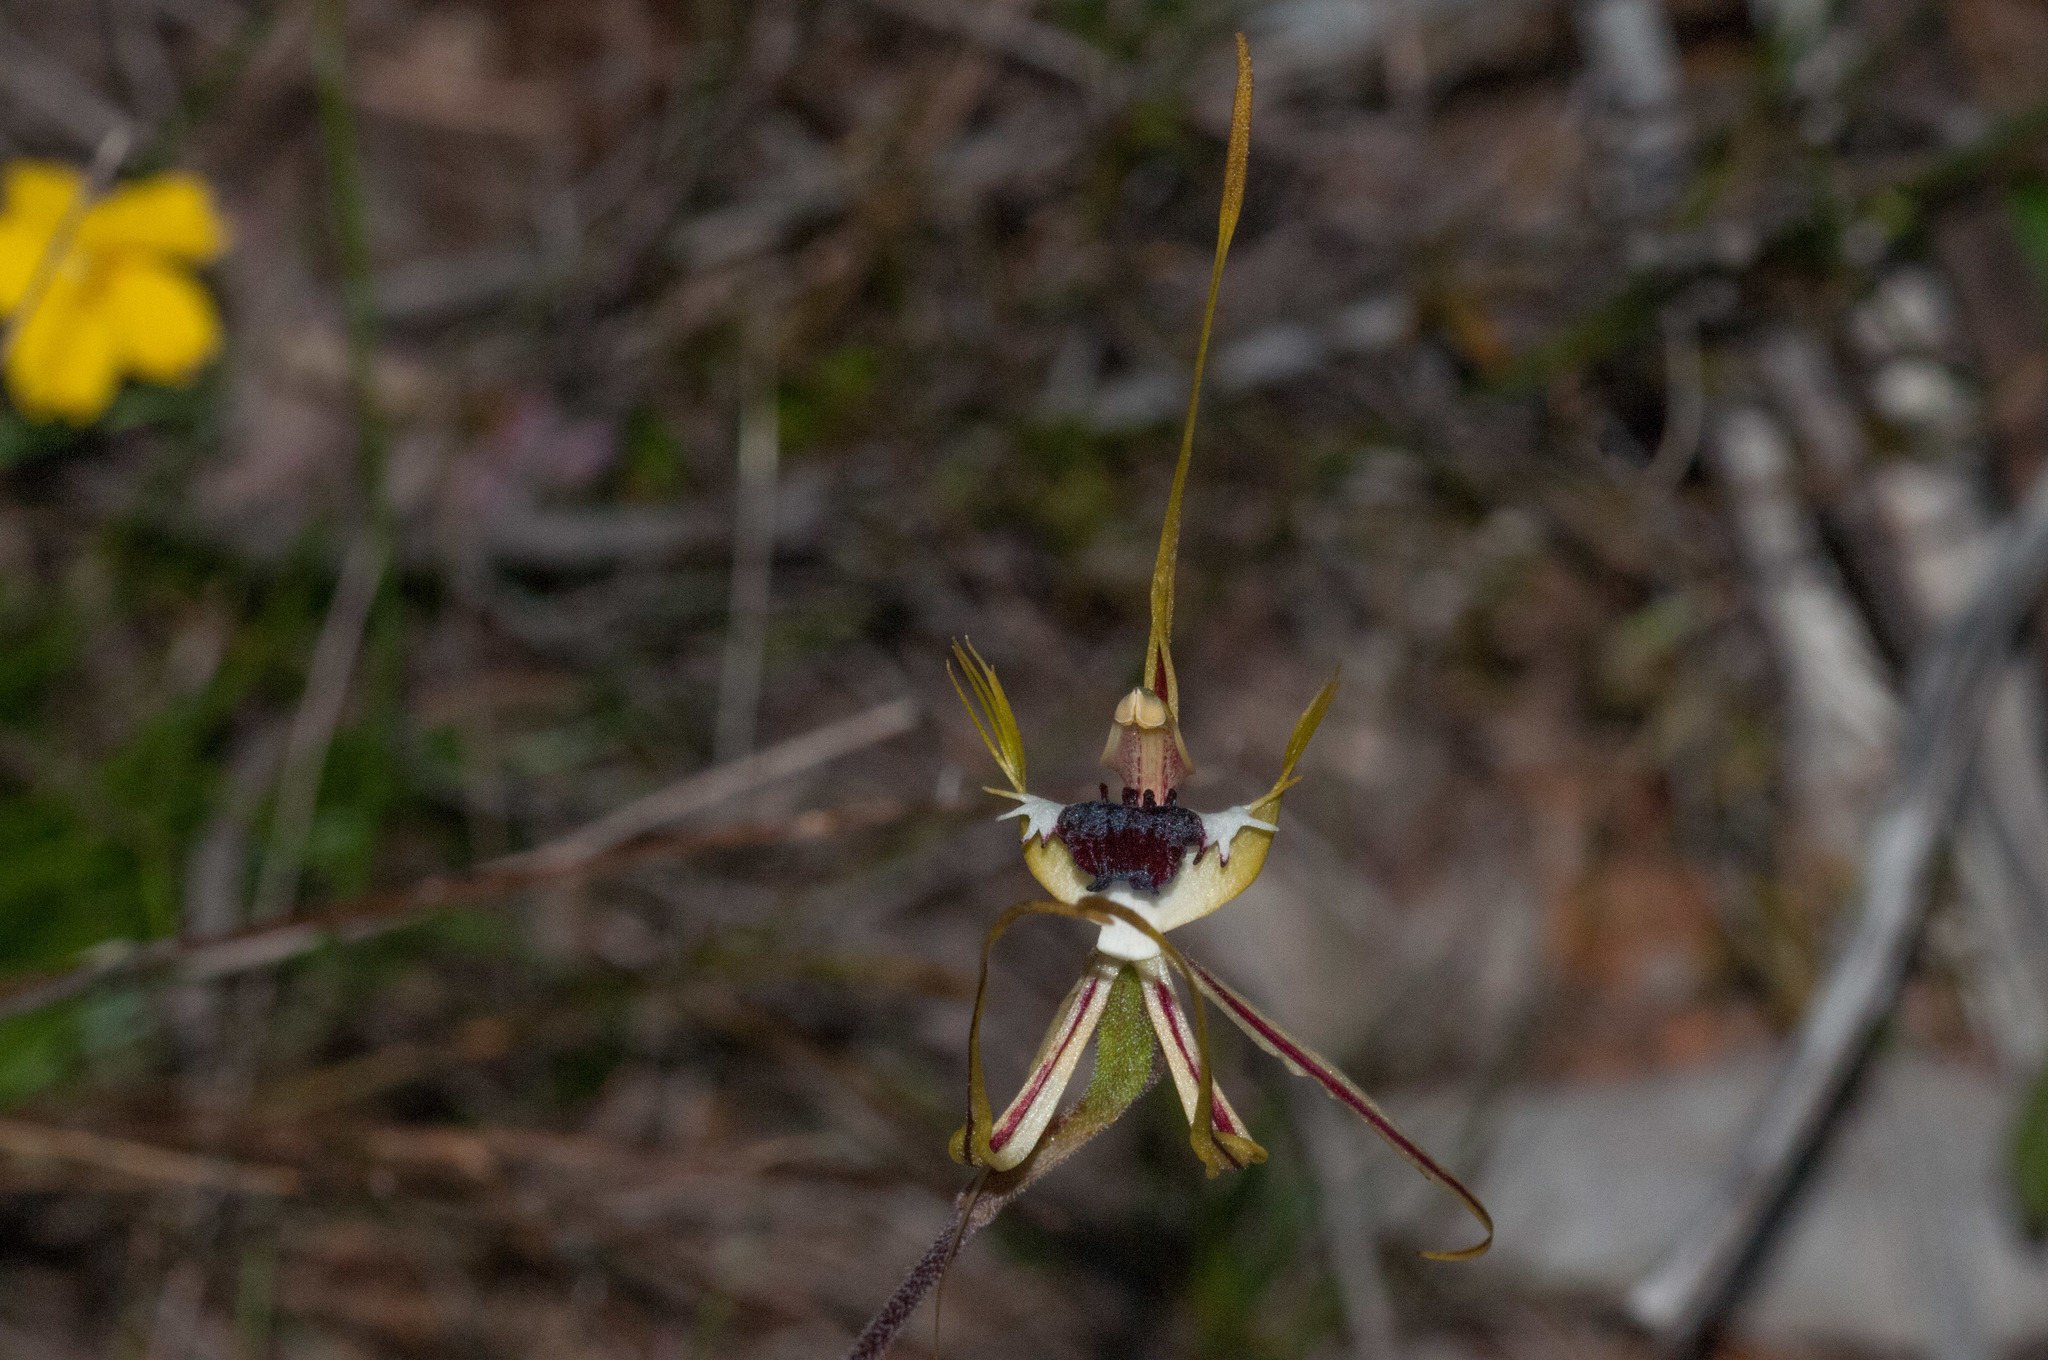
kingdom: Plantae
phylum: Tracheophyta
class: Liliopsida
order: Asparagales
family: Orchidaceae
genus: Caladenia
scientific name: Caladenia tentaculata
